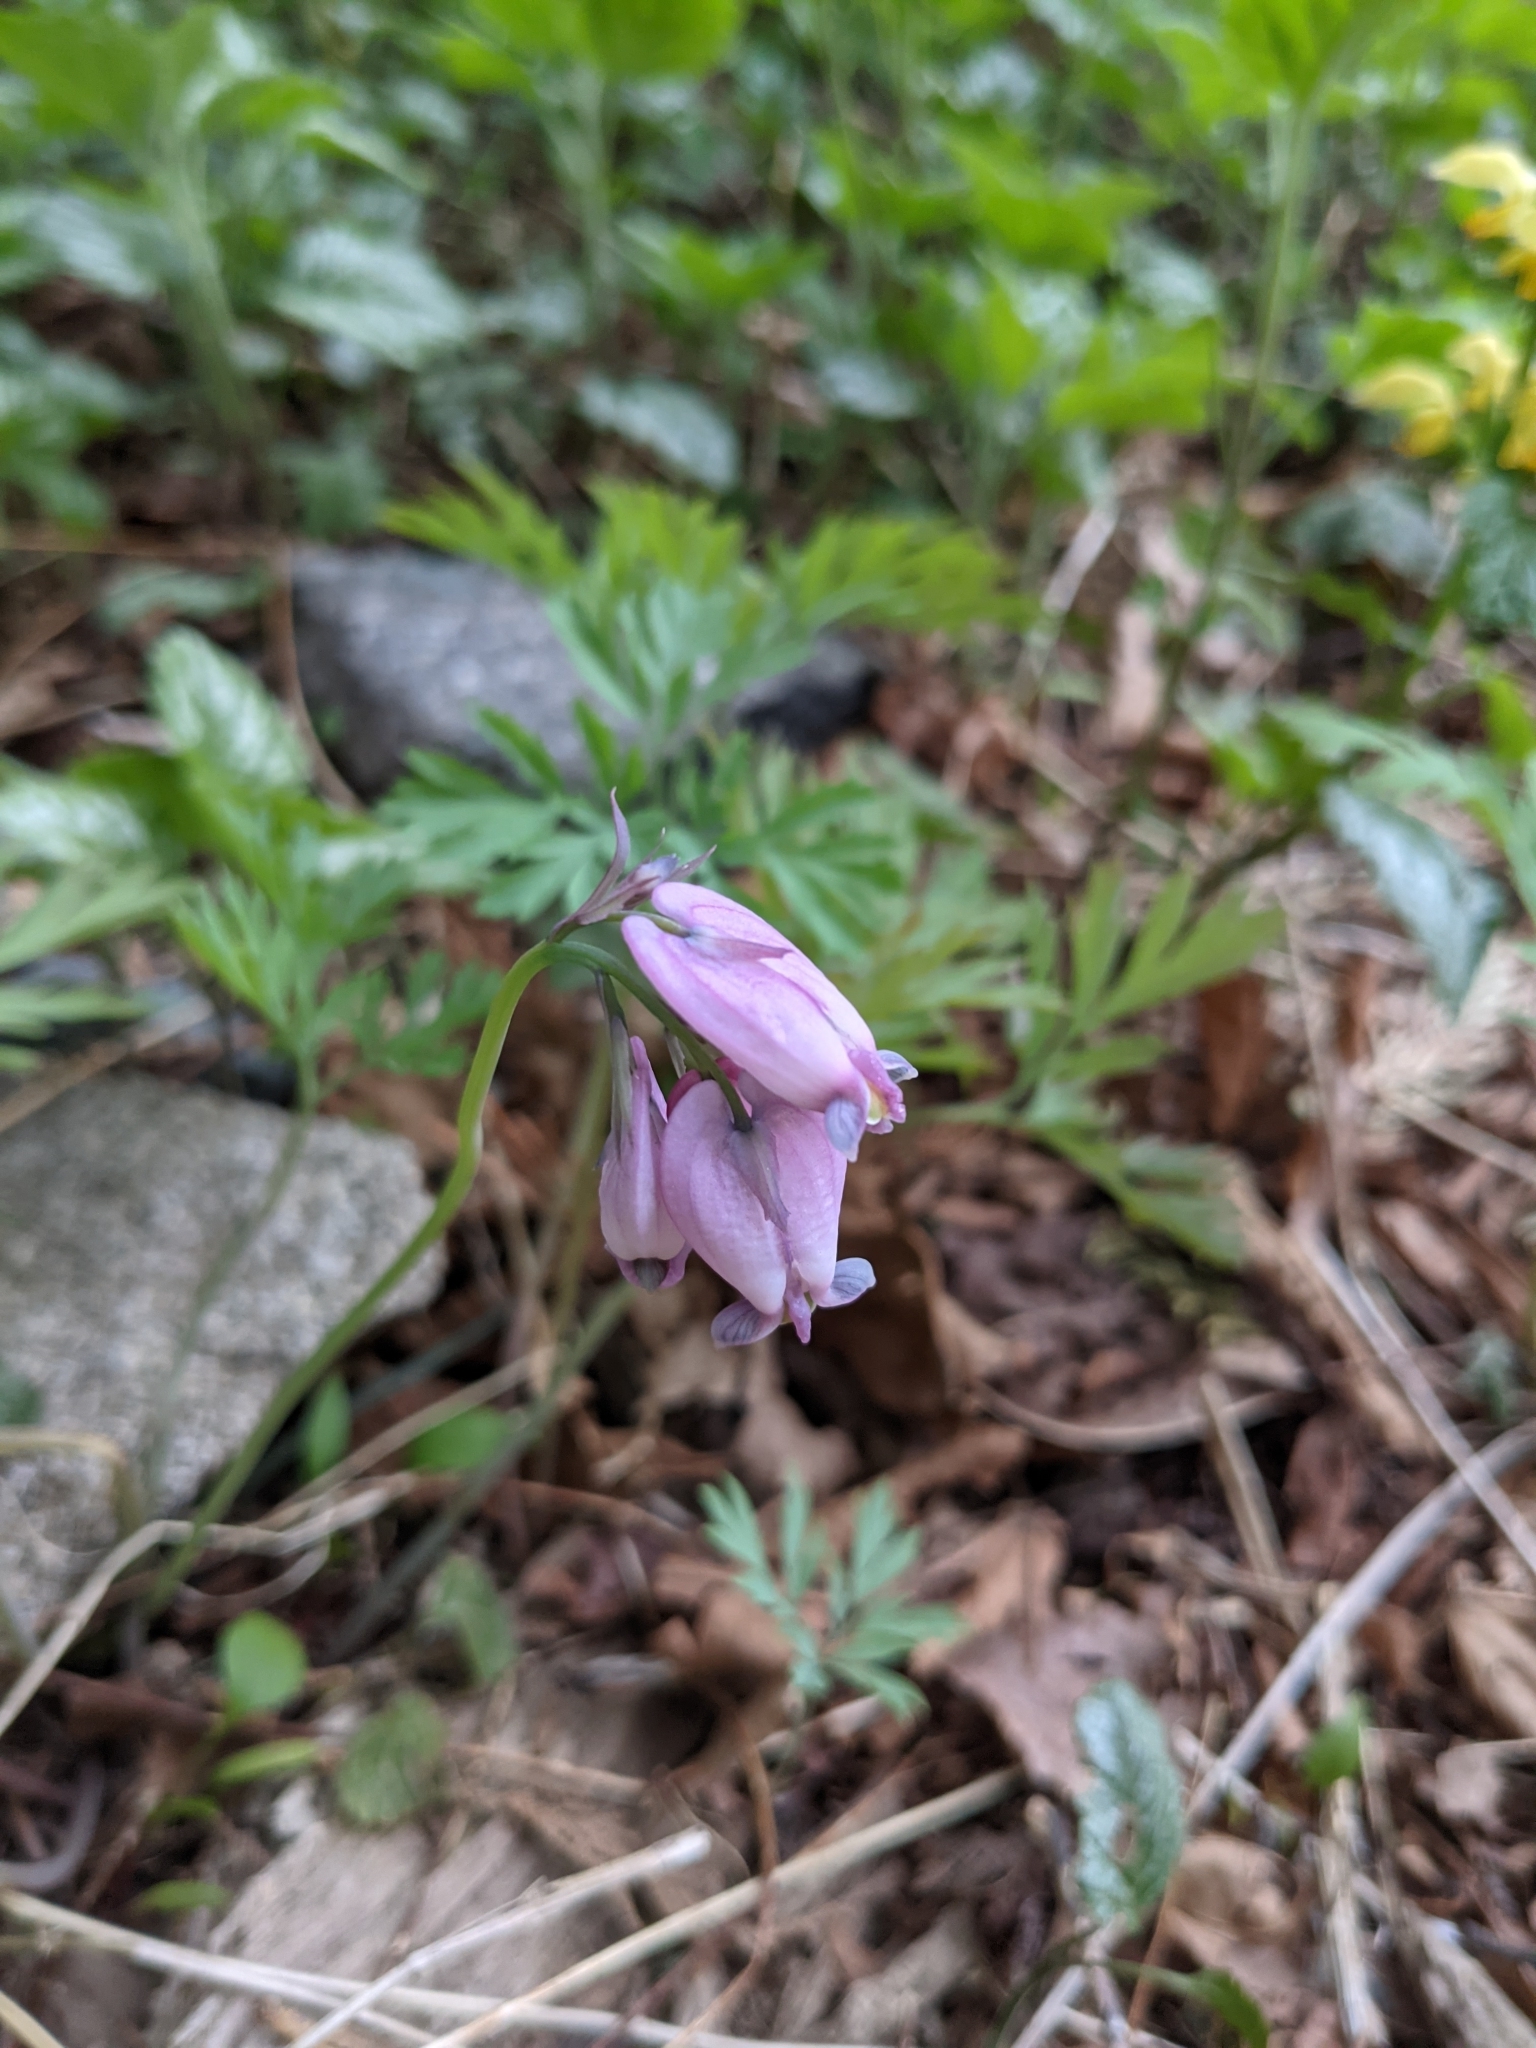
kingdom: Plantae
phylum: Tracheophyta
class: Magnoliopsida
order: Ranunculales
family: Papaveraceae
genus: Dicentra
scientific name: Dicentra formosa
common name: Bleeding-heart
